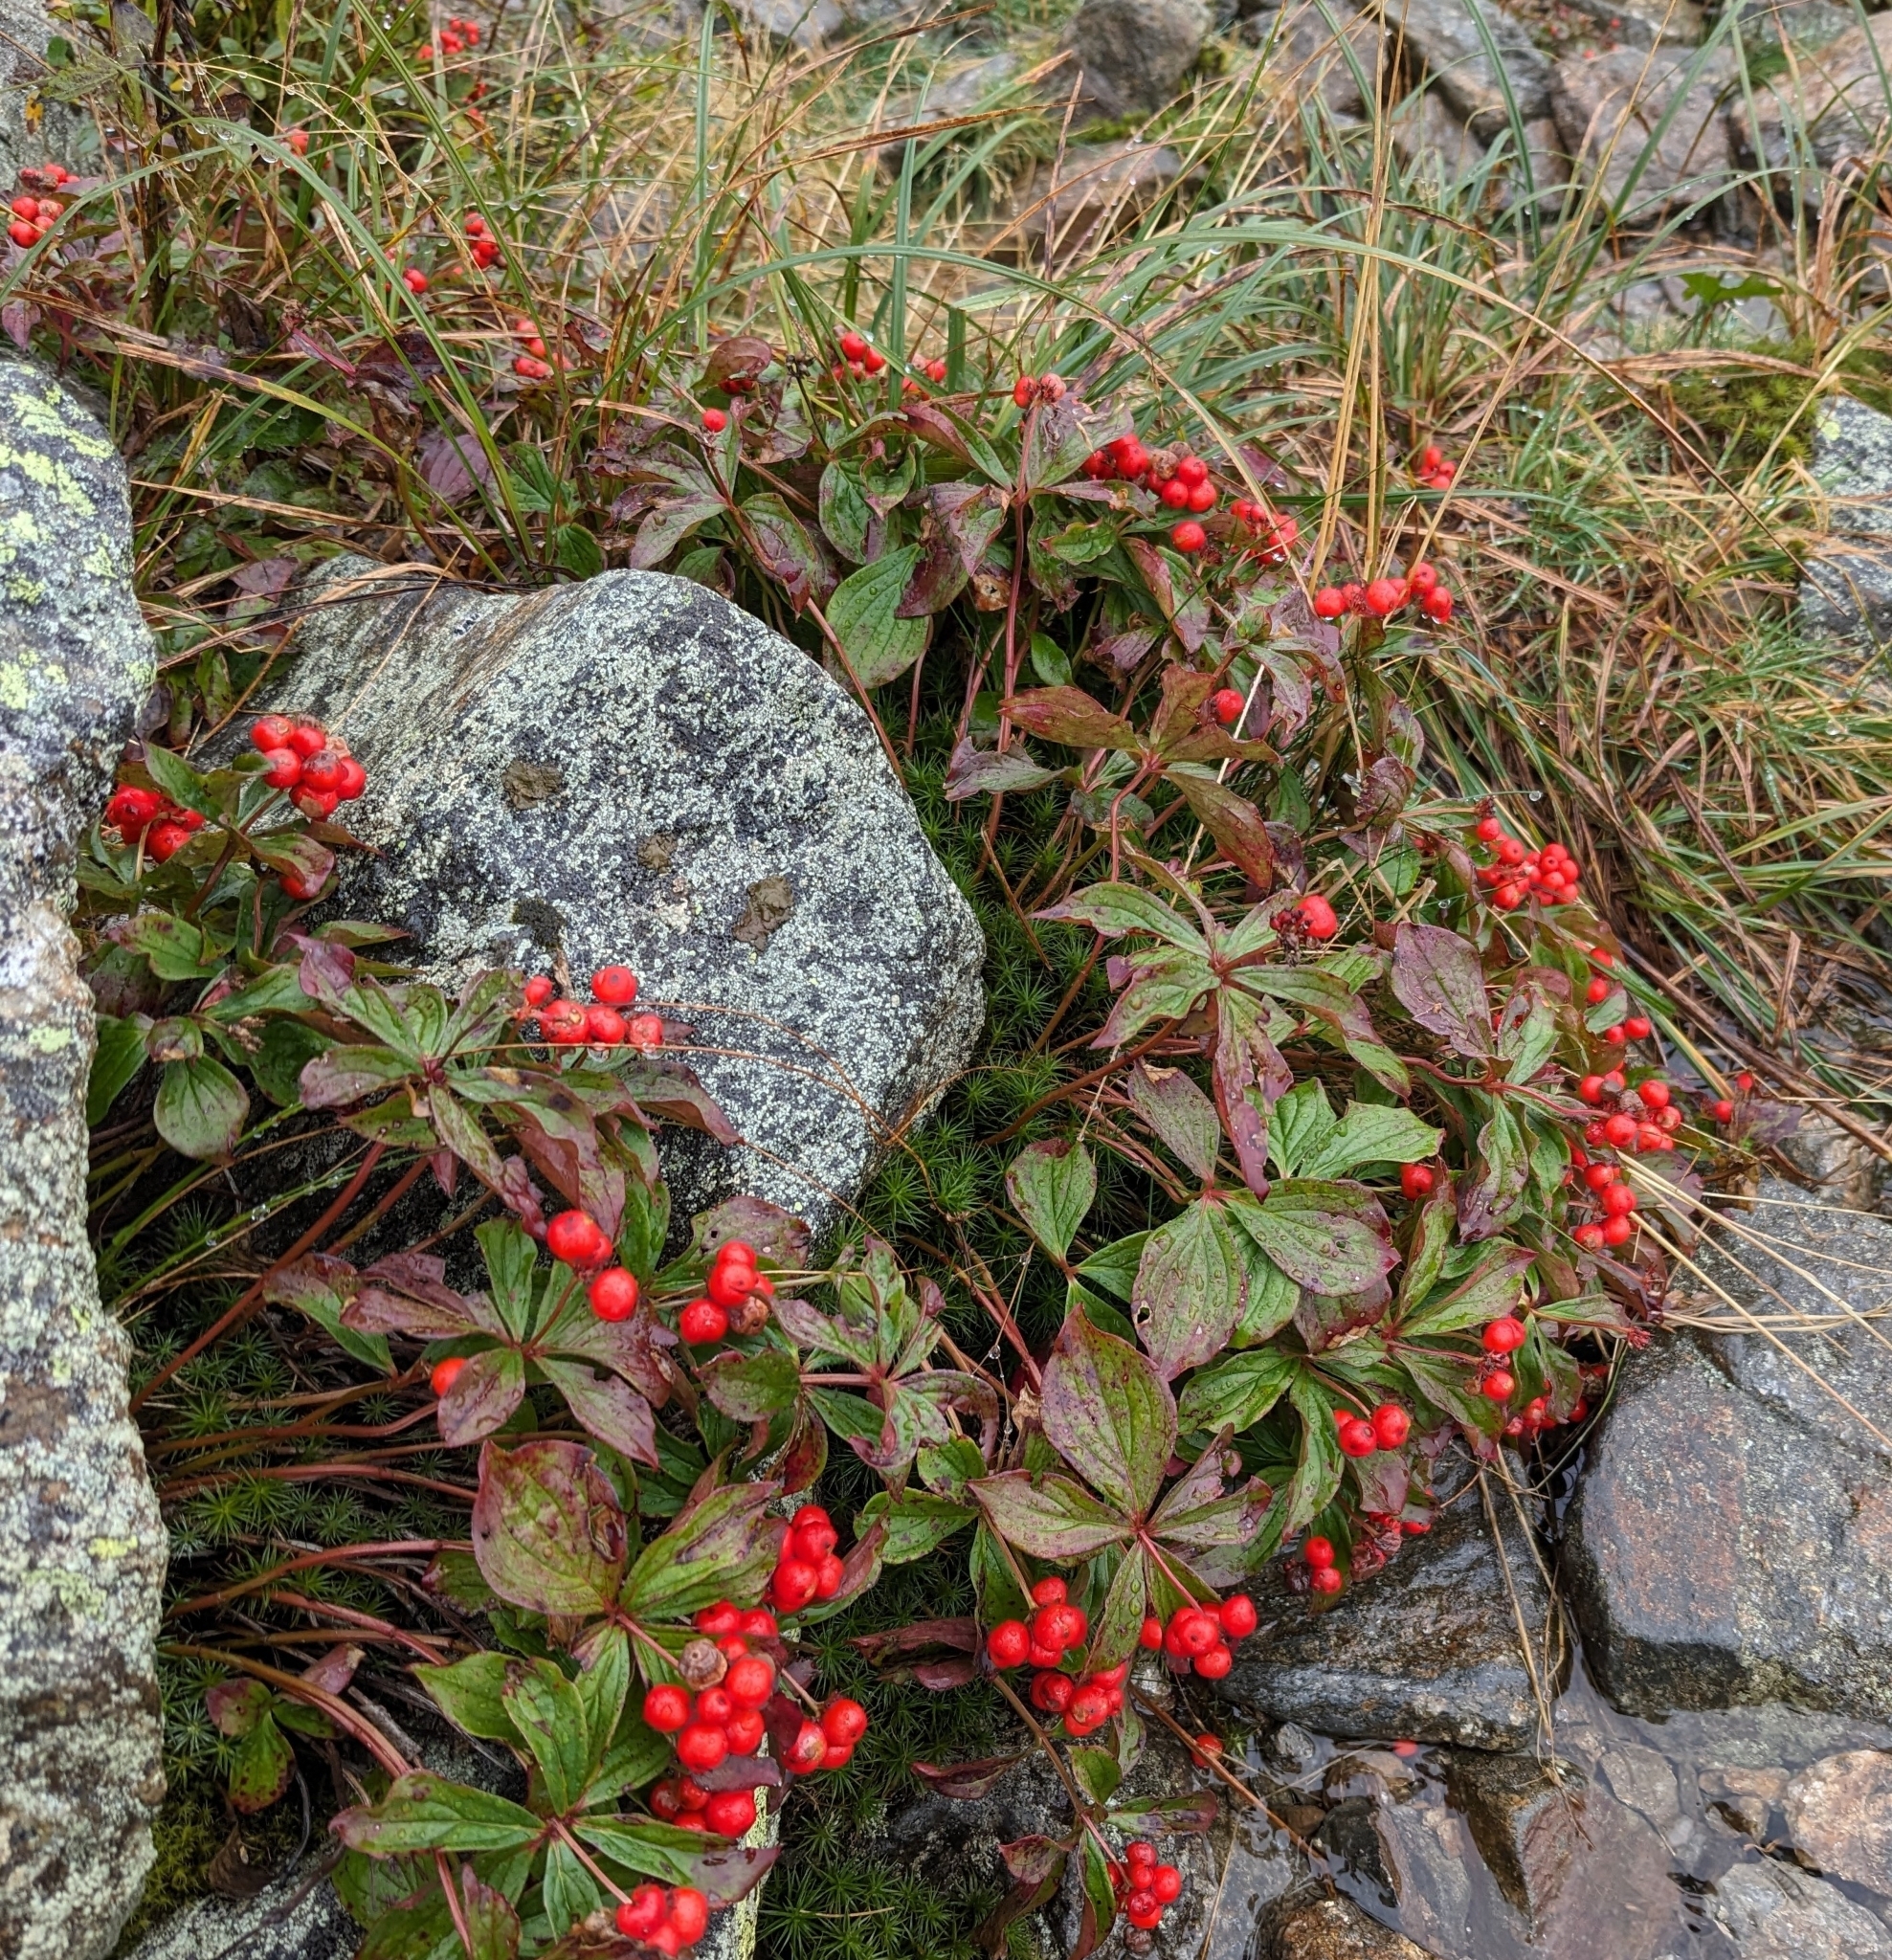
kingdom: Plantae
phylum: Tracheophyta
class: Magnoliopsida
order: Cornales
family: Cornaceae
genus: Cornus
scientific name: Cornus canadensis
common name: Creeping dogwood
